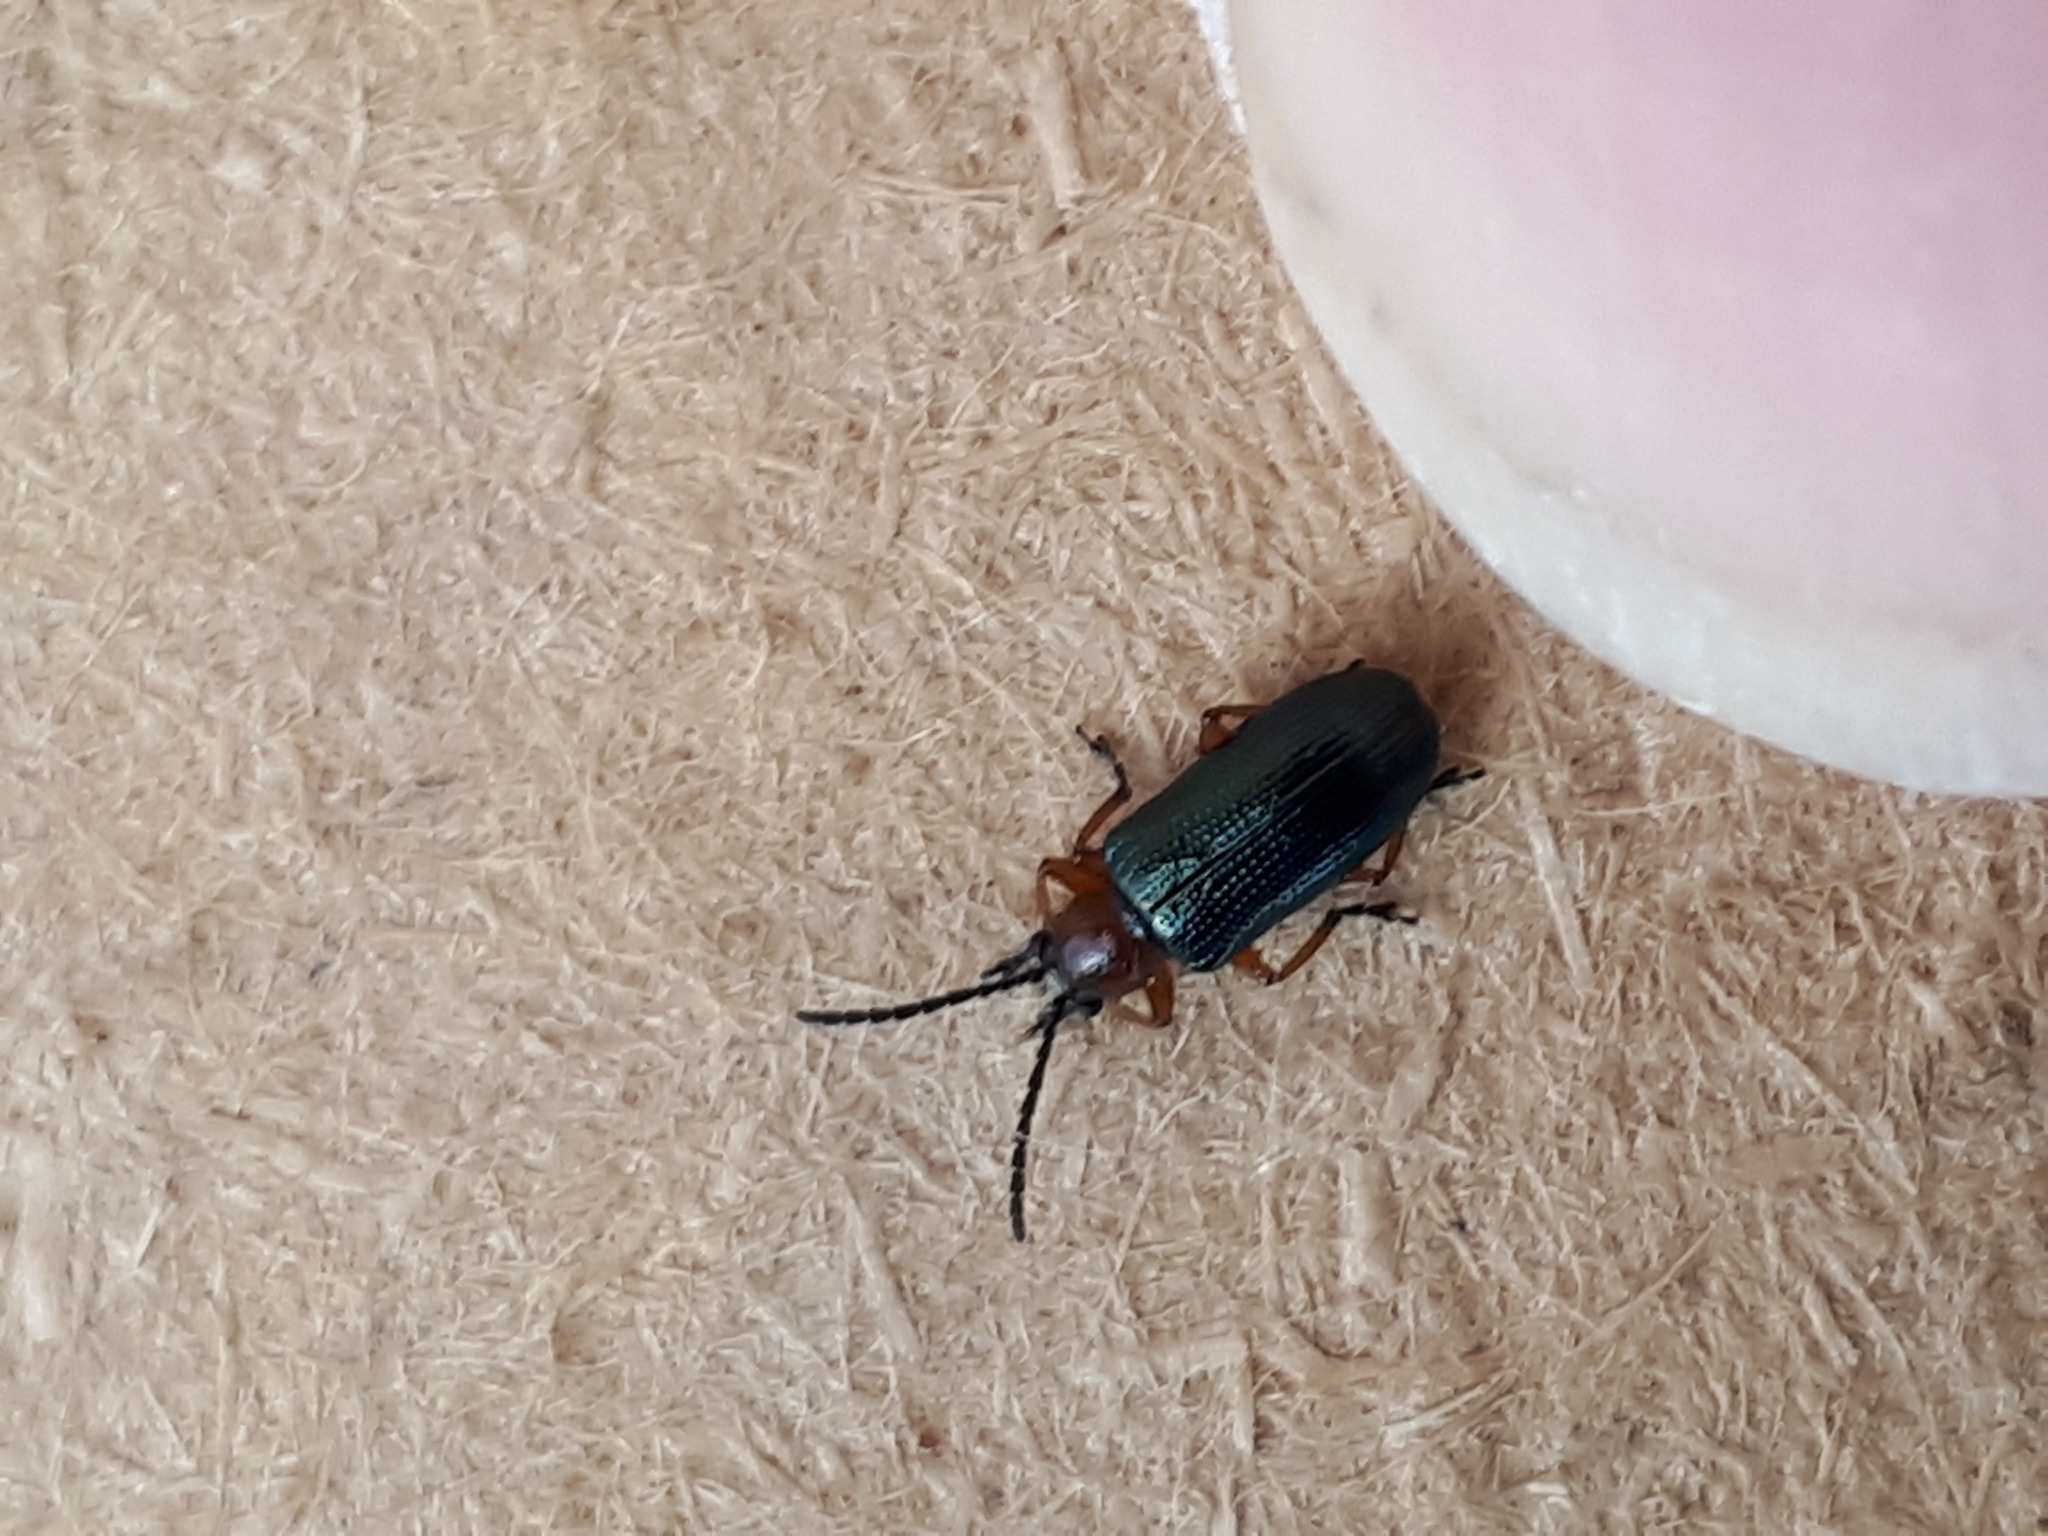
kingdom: Animalia
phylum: Arthropoda
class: Insecta
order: Coleoptera
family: Chrysomelidae
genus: Oulema
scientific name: Oulema
